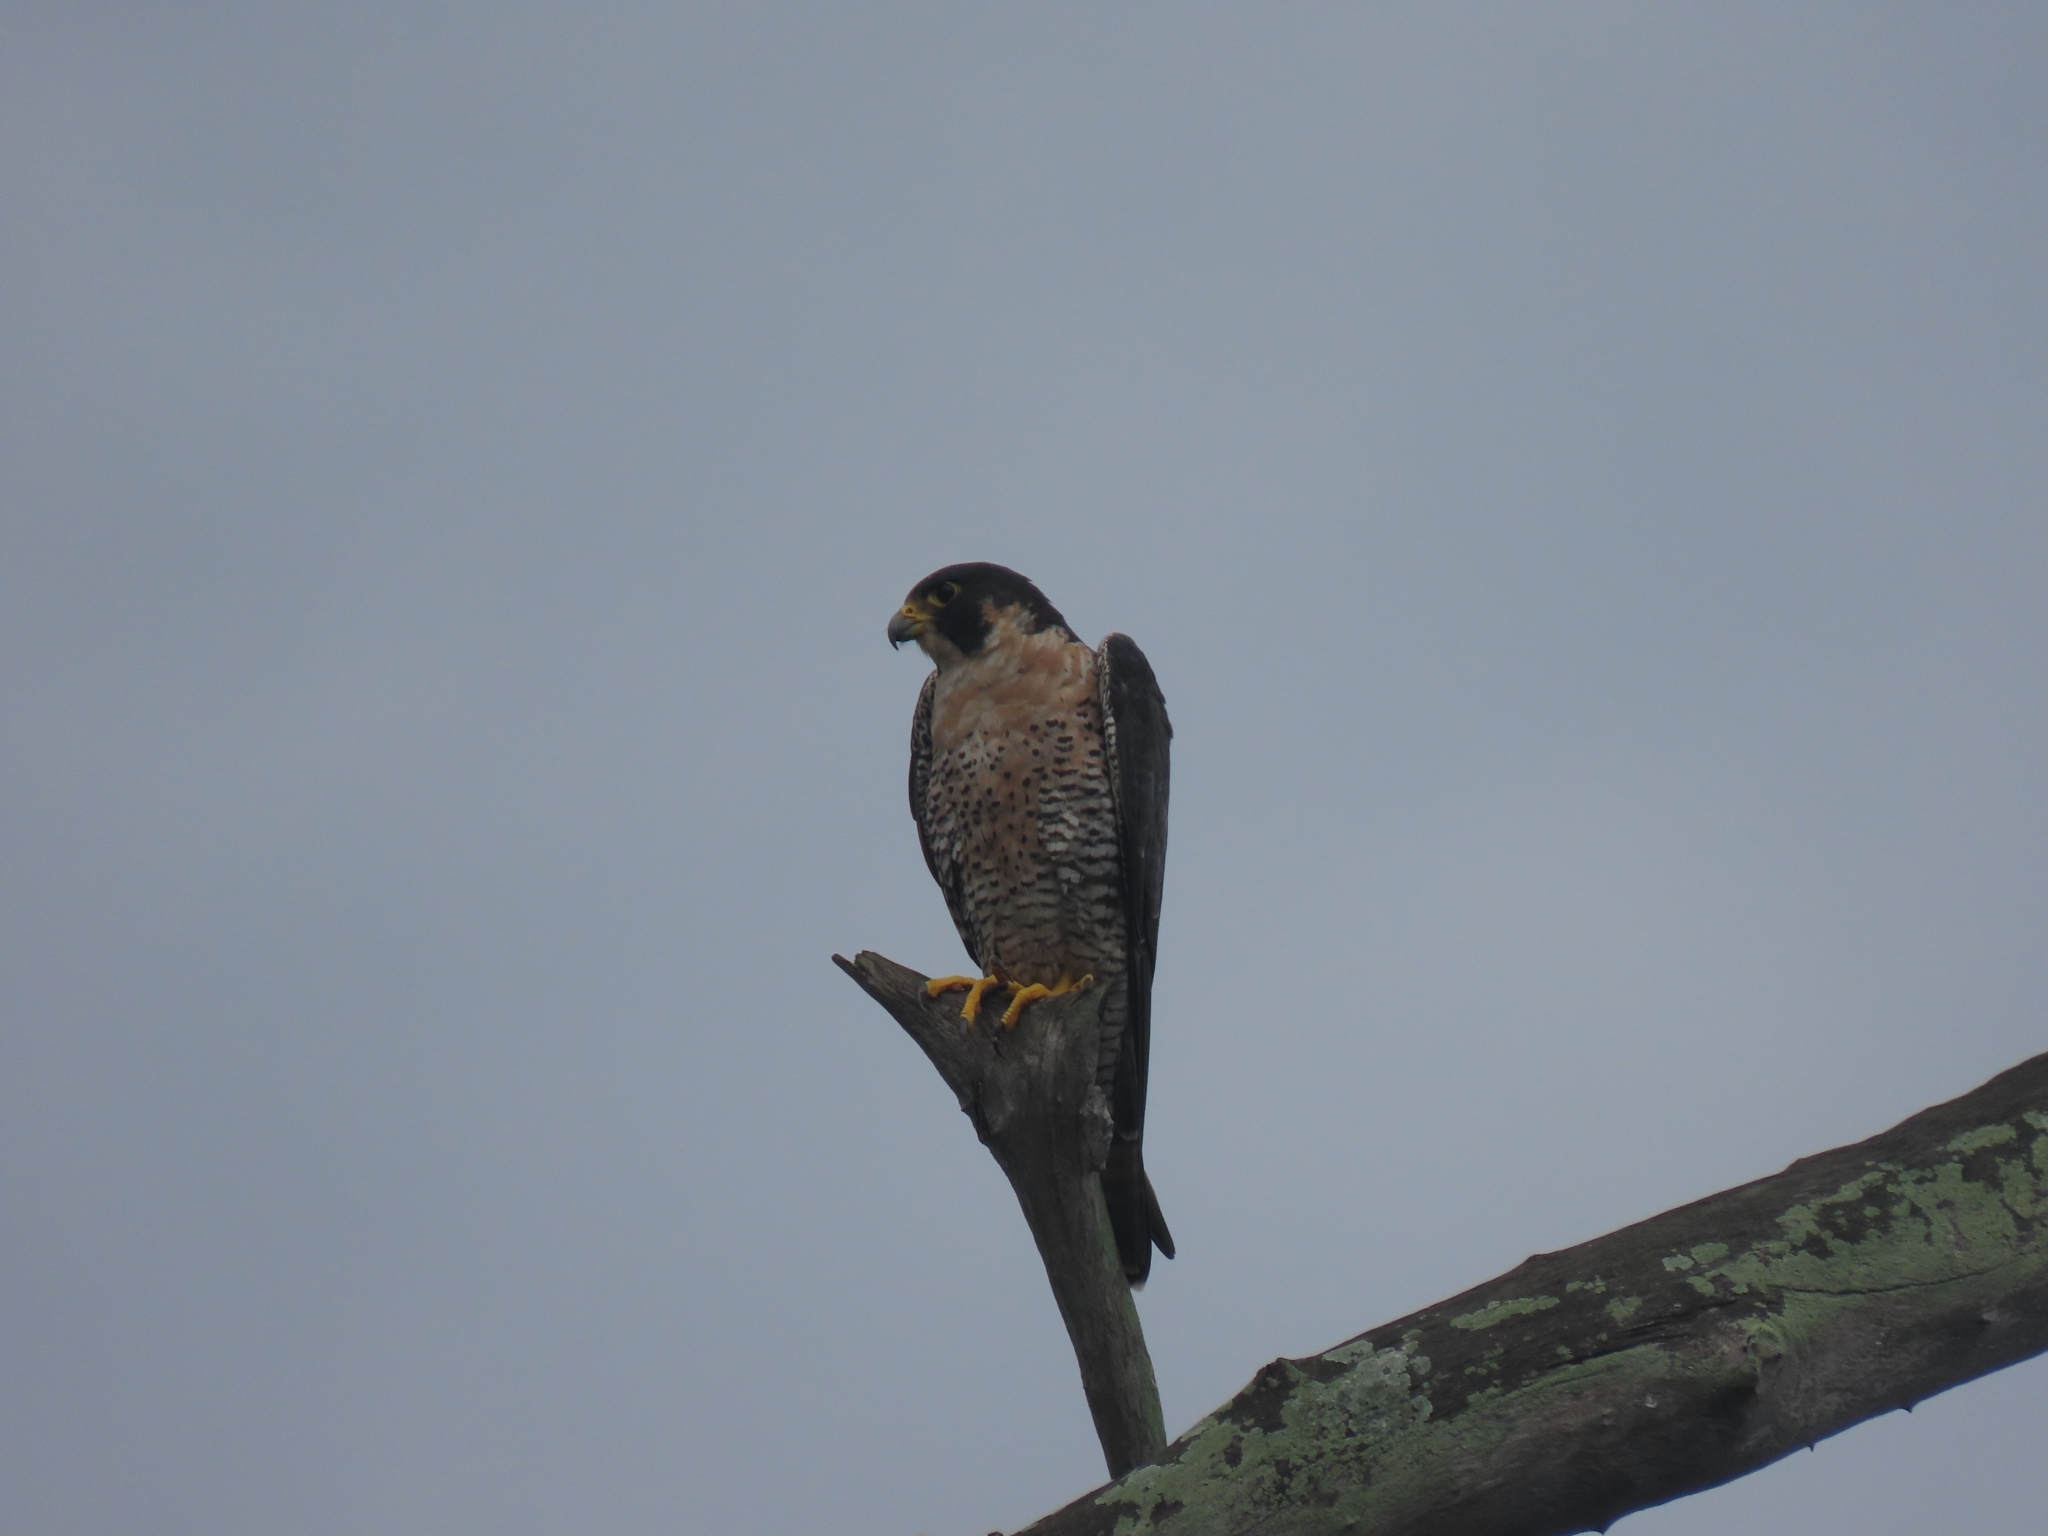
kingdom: Animalia
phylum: Chordata
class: Aves
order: Falconiformes
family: Falconidae
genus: Falco
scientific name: Falco peregrinus
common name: Peregrine falcon
